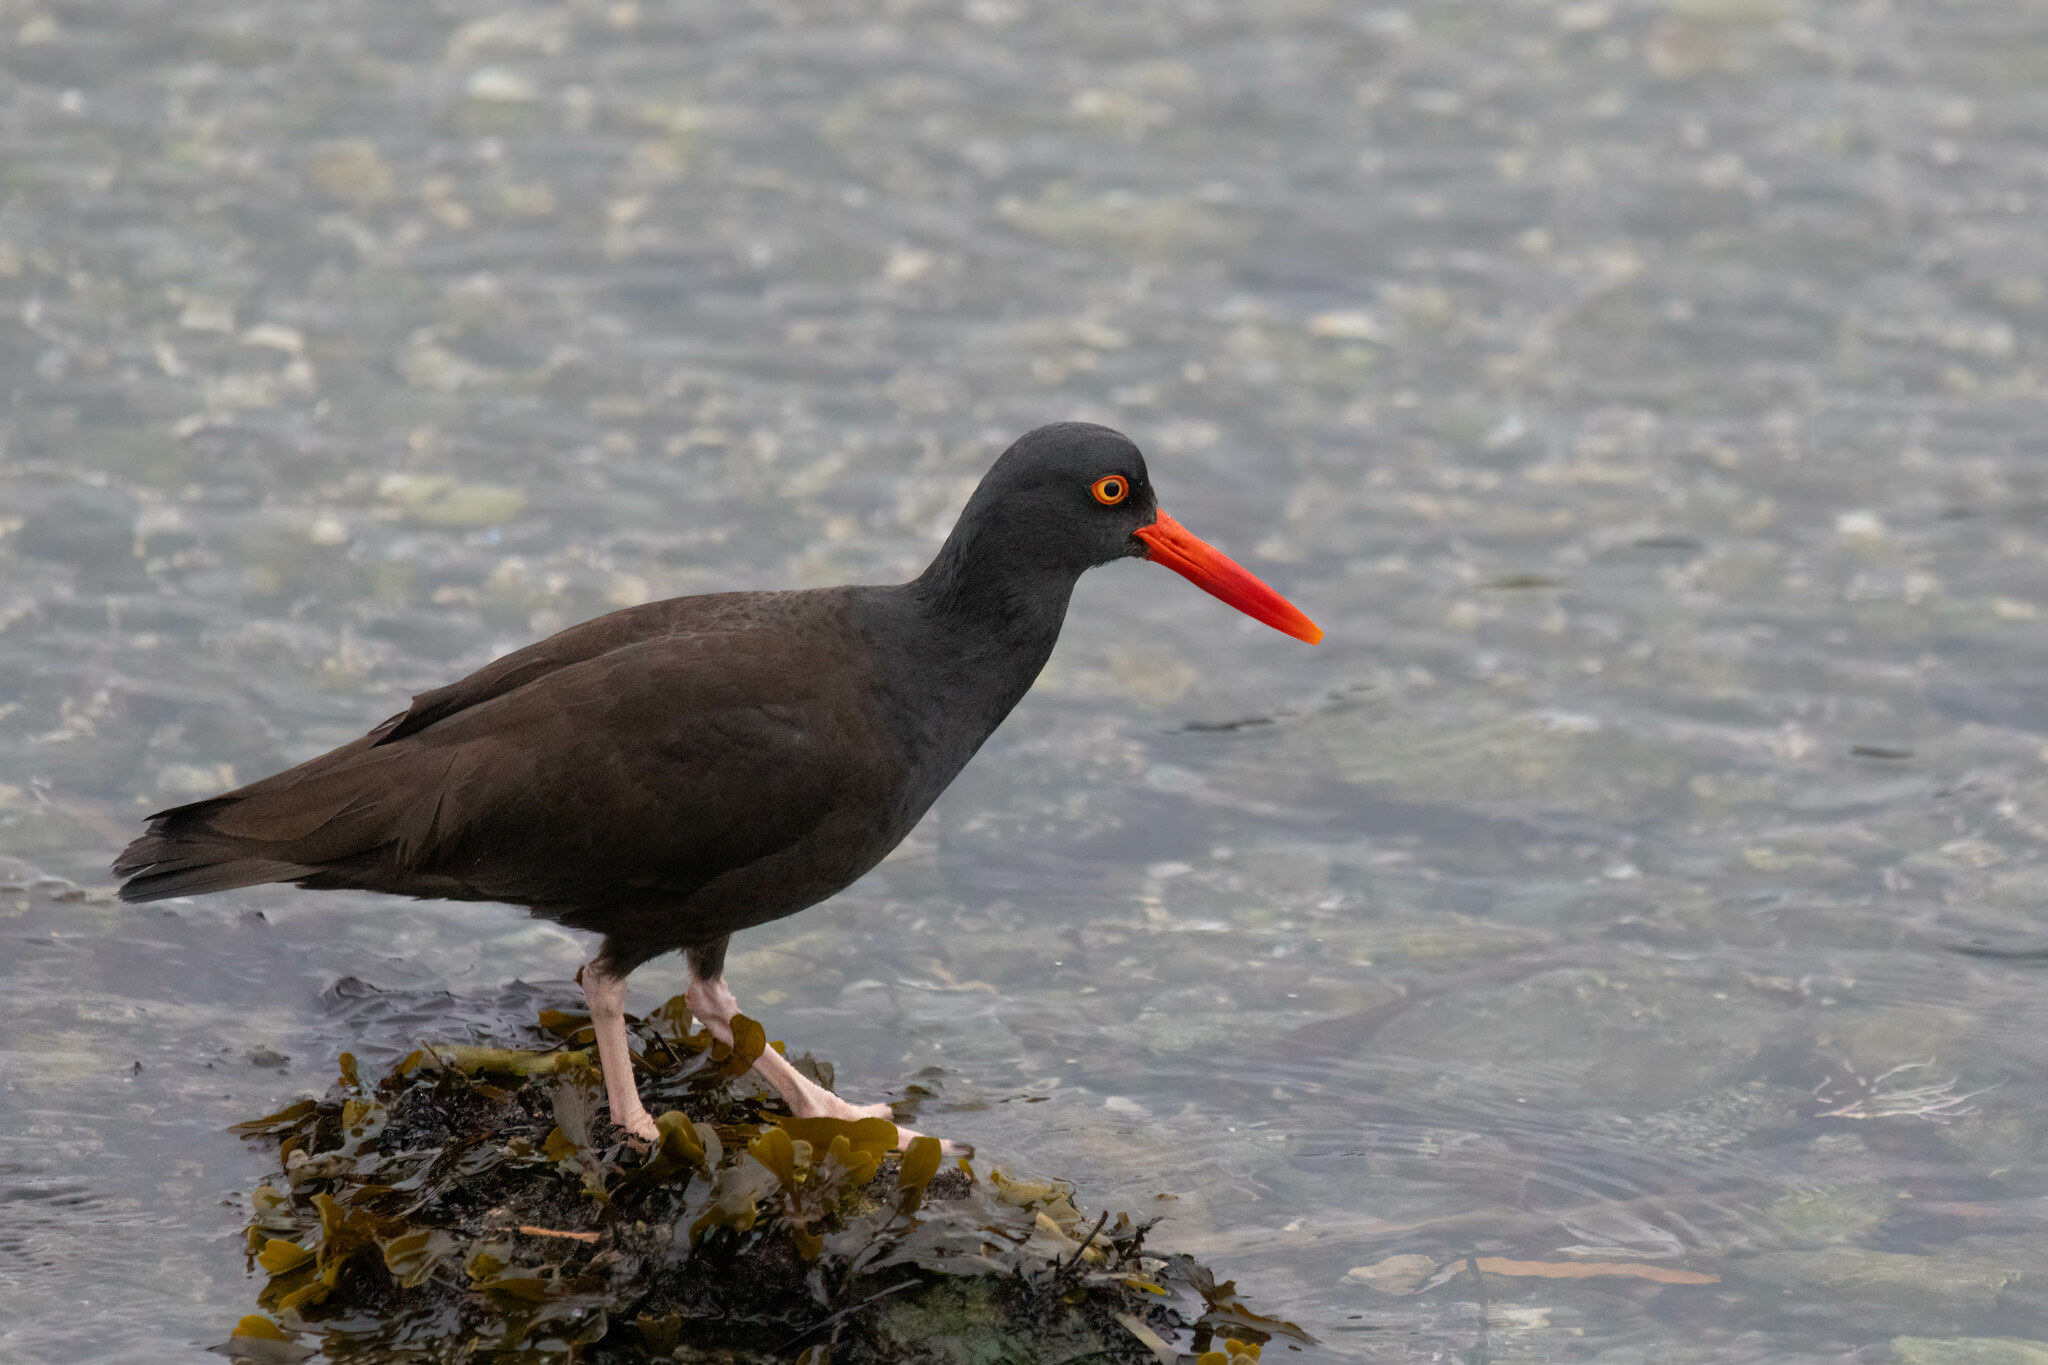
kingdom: Animalia
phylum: Chordata
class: Aves
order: Charadriiformes
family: Haematopodidae
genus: Haematopus
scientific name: Haematopus bachmani
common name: Black oystercatcher
